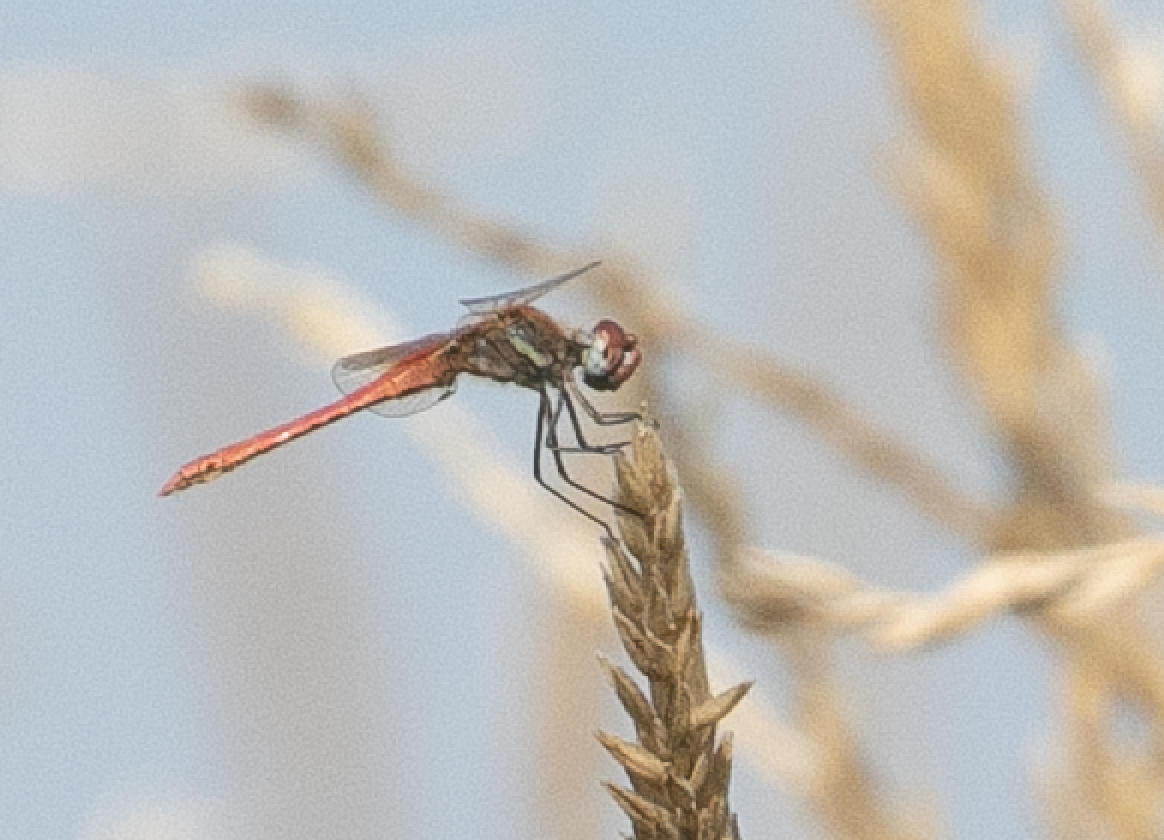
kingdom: Animalia
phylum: Arthropoda
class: Insecta
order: Odonata
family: Libellulidae
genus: Sympetrum
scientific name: Sympetrum fonscolombii
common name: Red-veined darter
